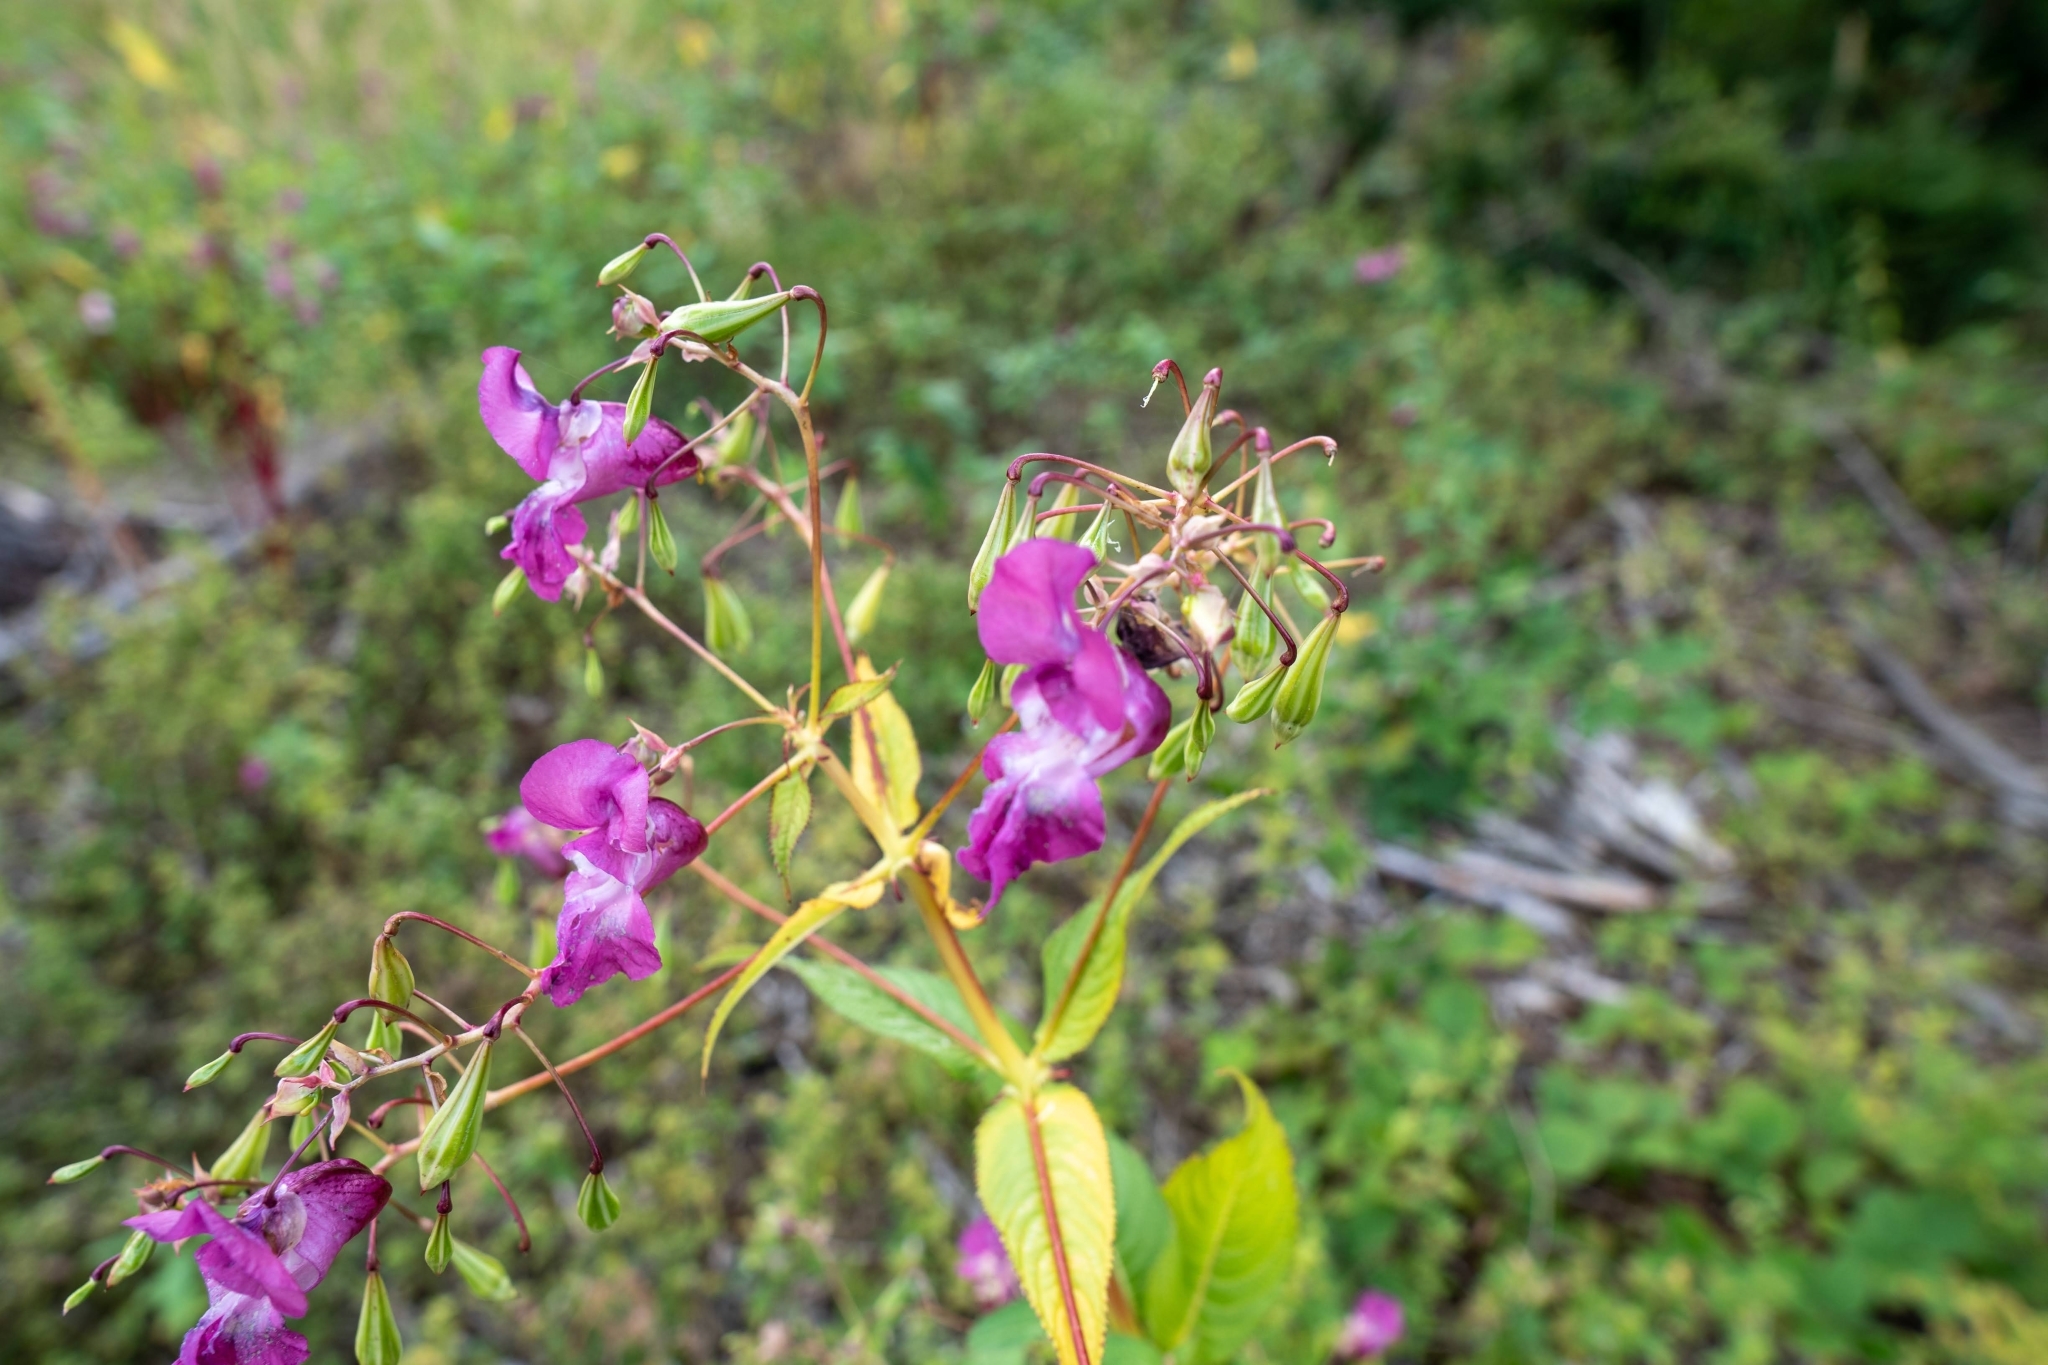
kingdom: Plantae
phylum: Tracheophyta
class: Magnoliopsida
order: Ericales
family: Balsaminaceae
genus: Impatiens
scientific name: Impatiens glandulifera
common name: Himalayan balsam
